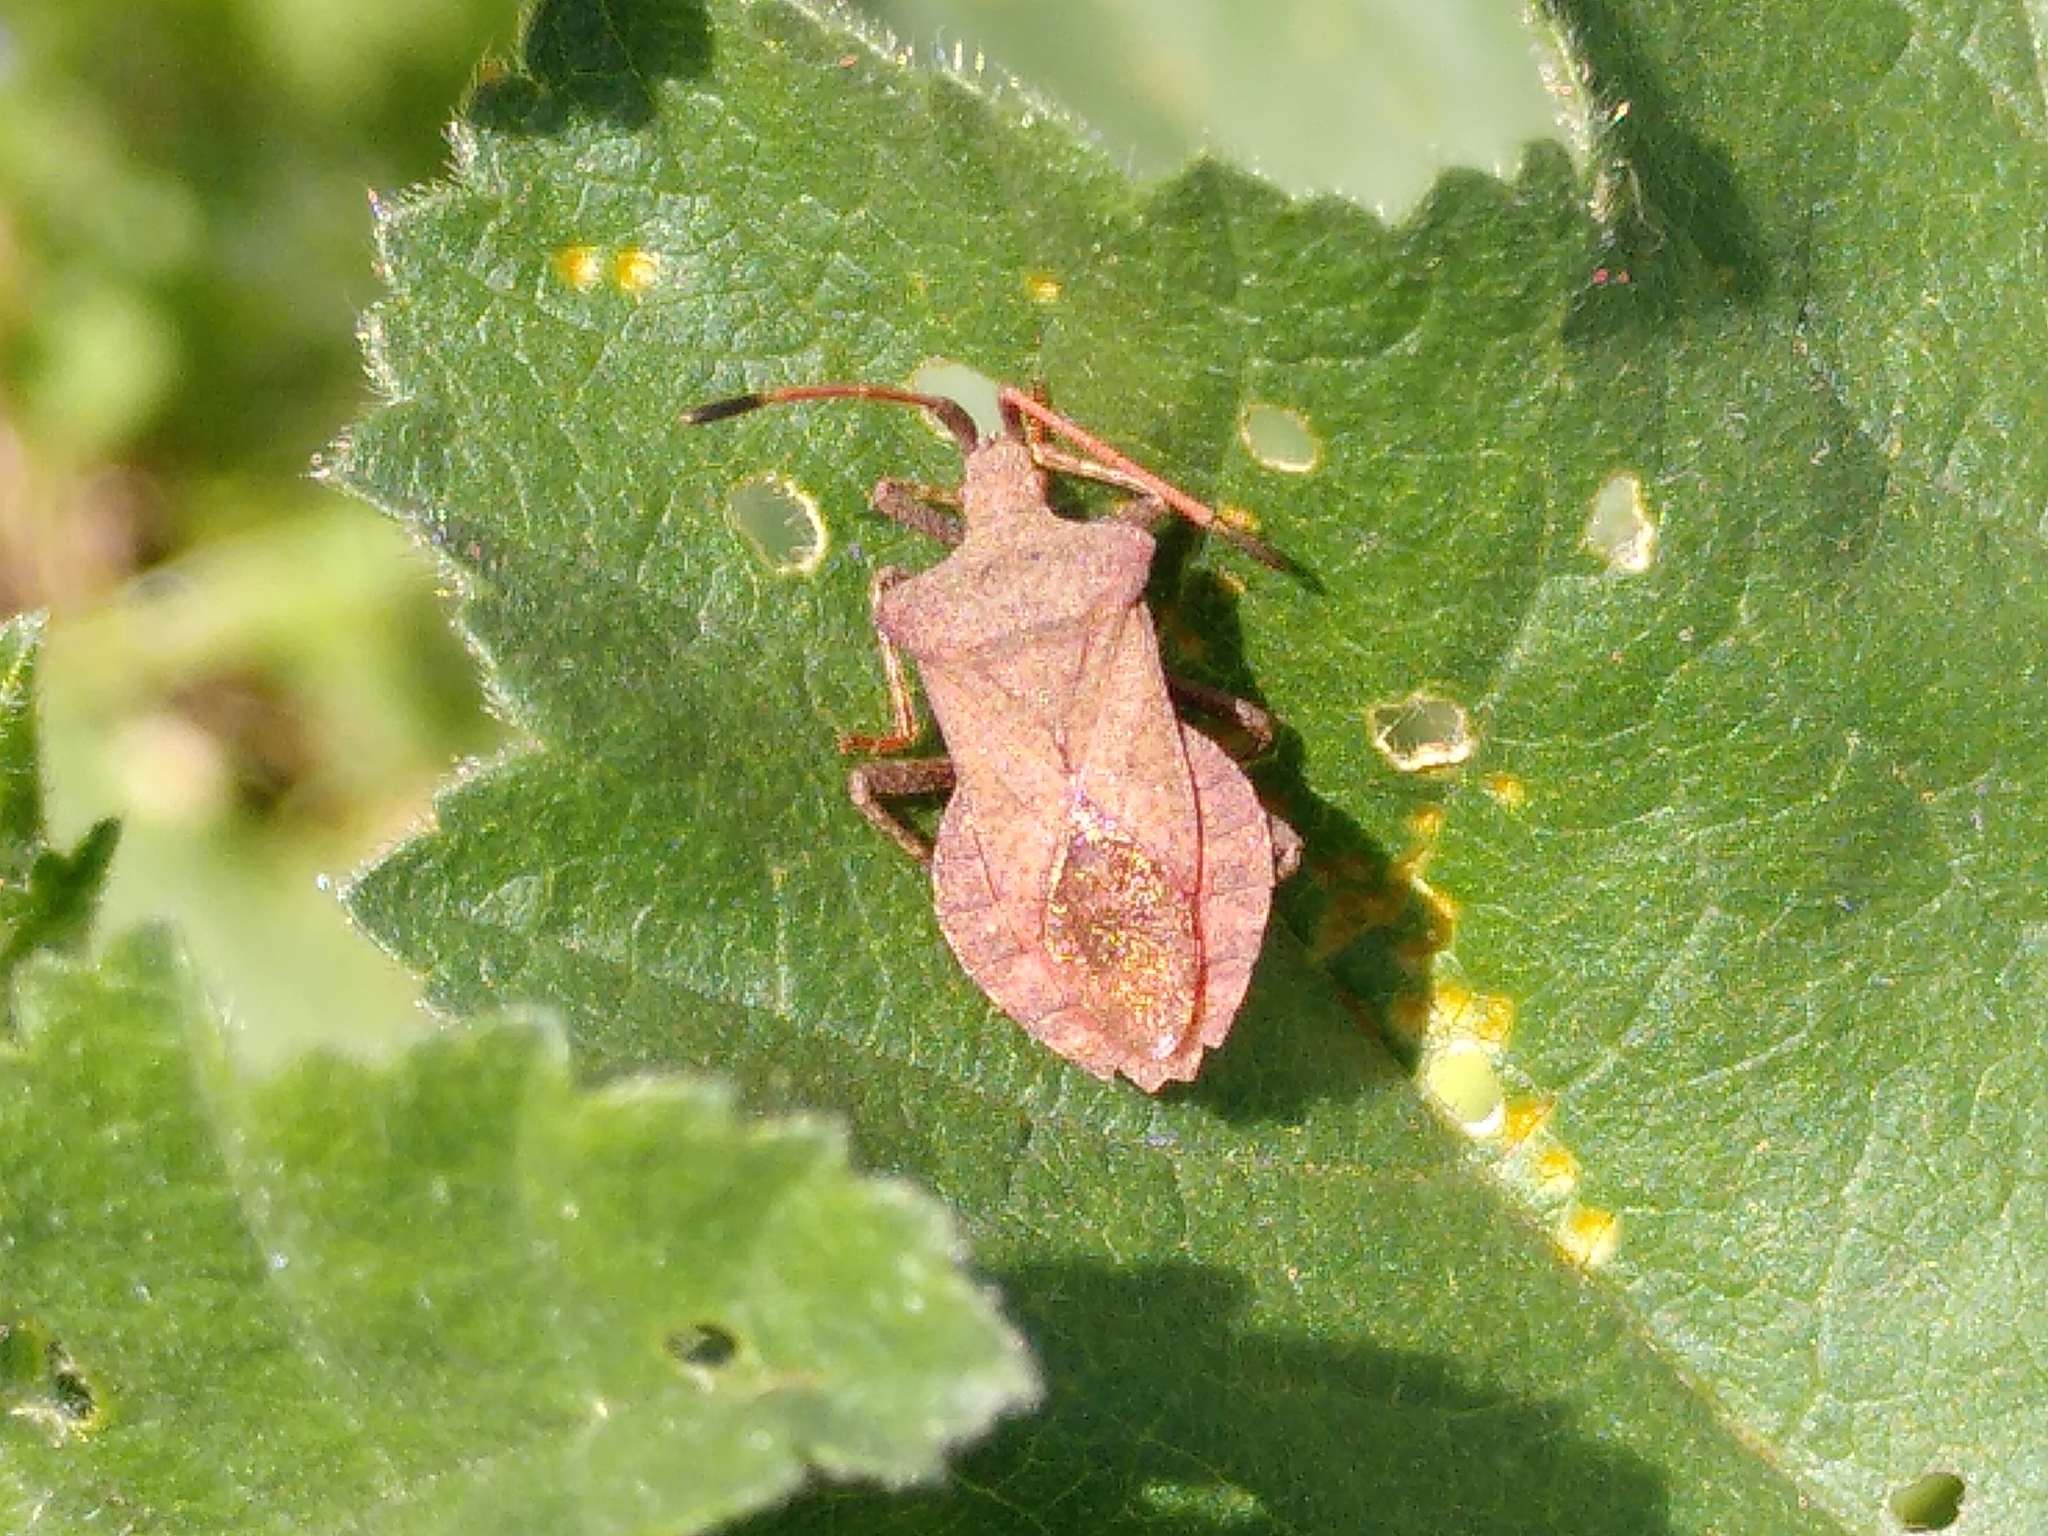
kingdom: Animalia
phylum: Arthropoda
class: Insecta
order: Hemiptera
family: Coreidae
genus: Coreus
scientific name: Coreus marginatus
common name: Dock bug
